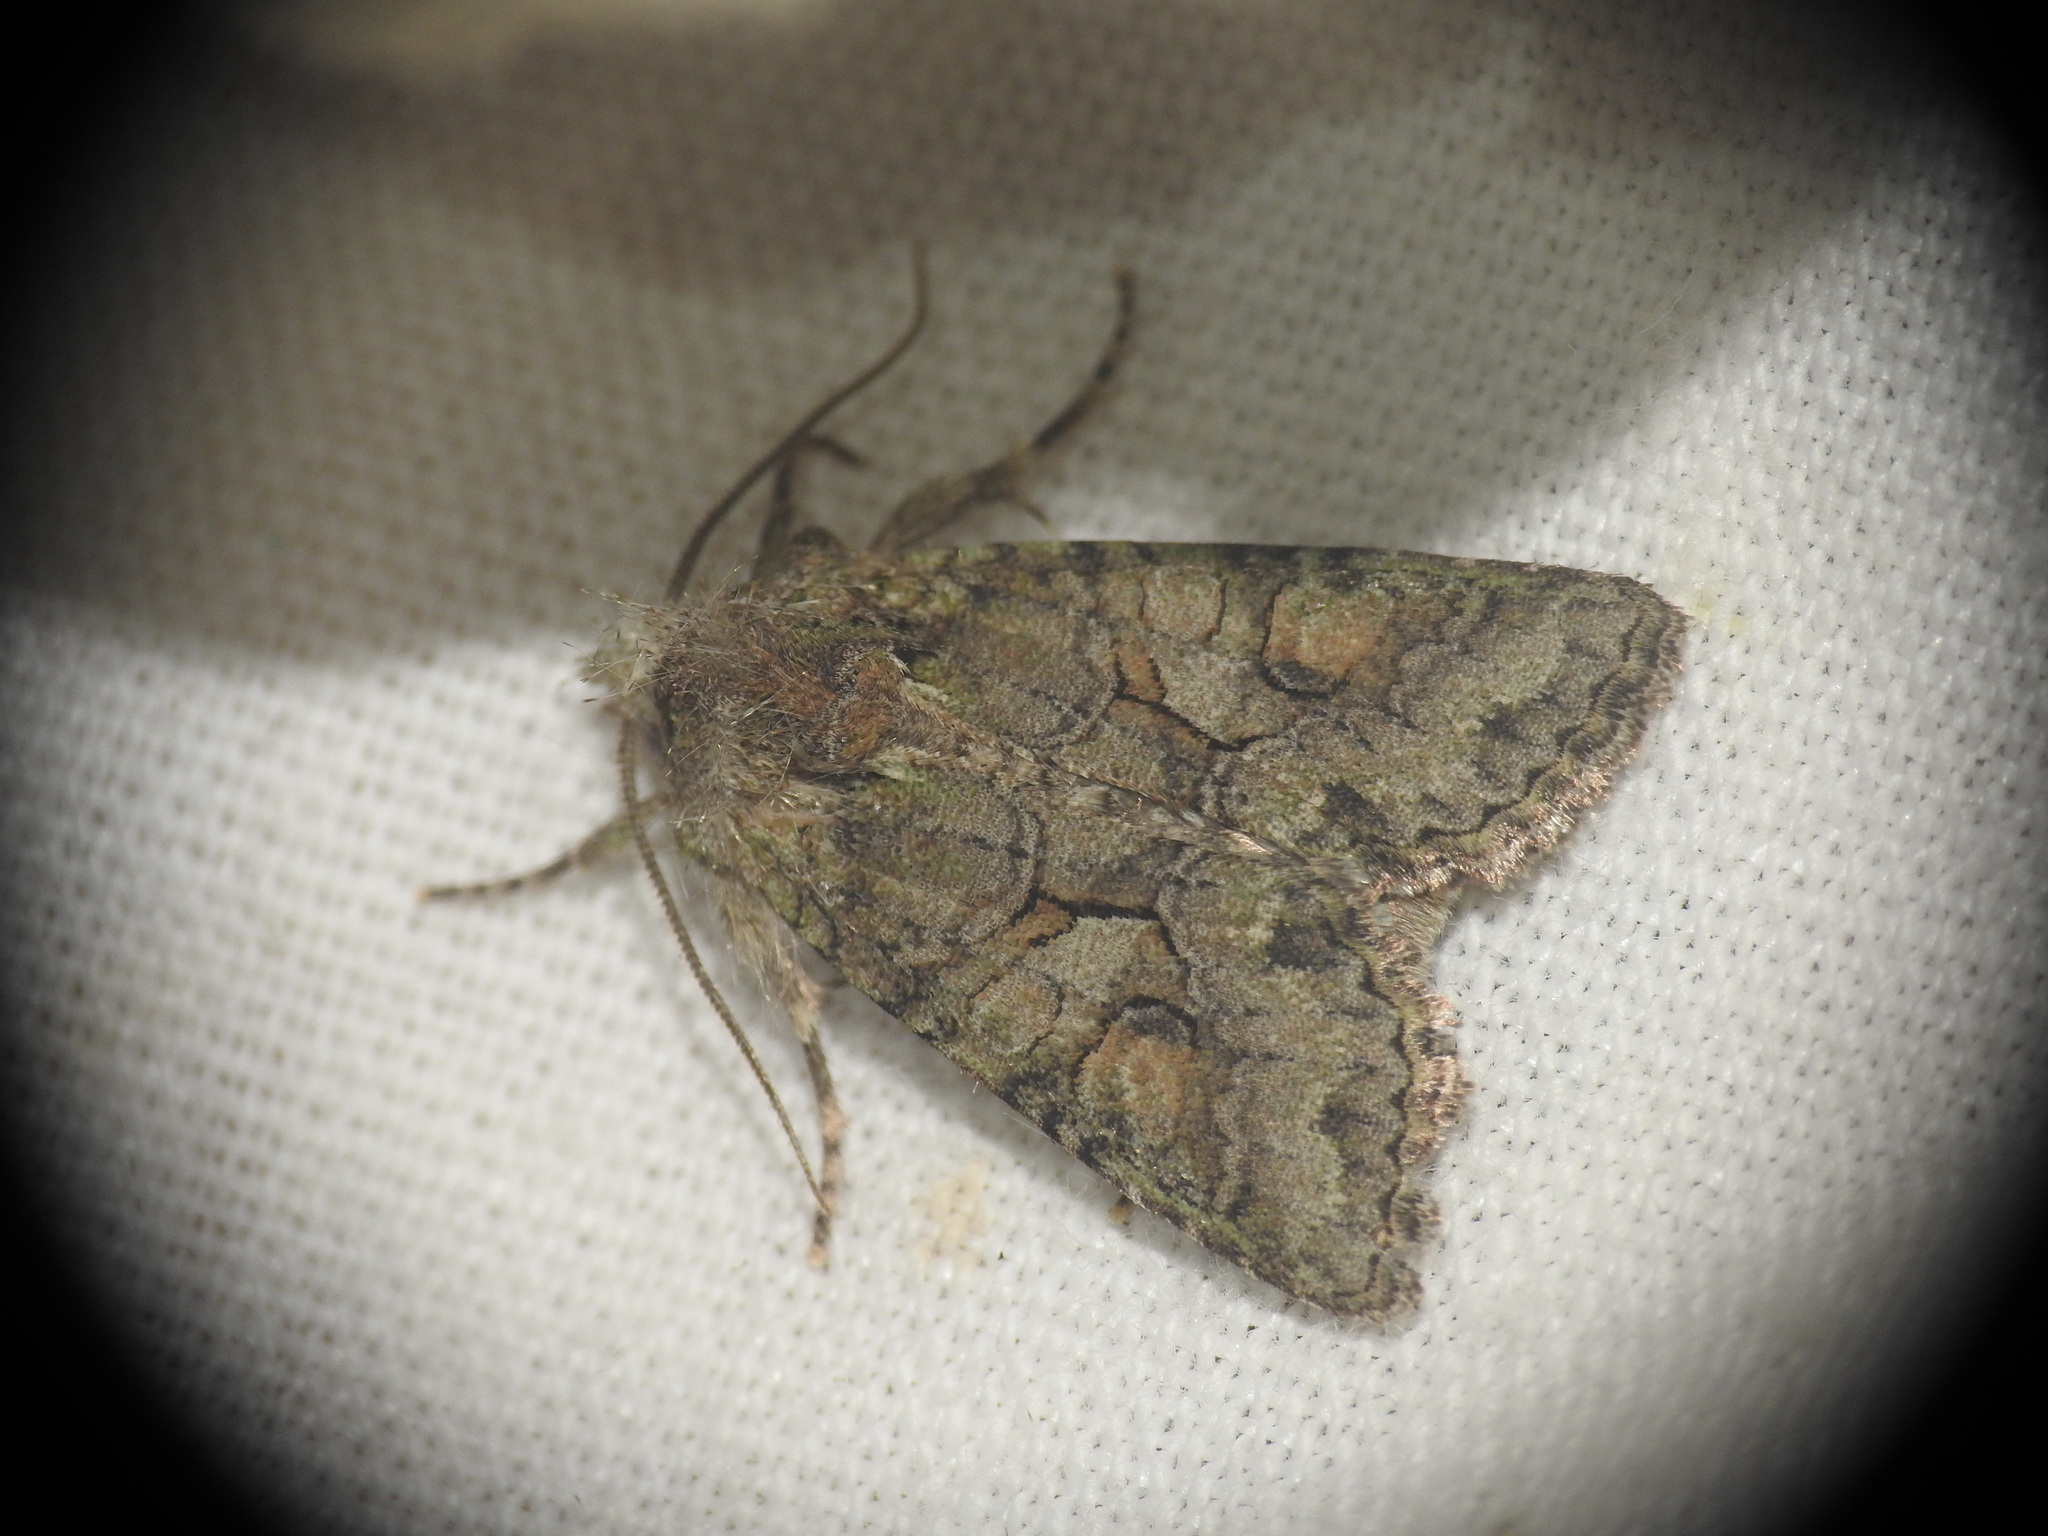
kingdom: Animalia
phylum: Arthropoda
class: Insecta
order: Lepidoptera
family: Noctuidae
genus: Dryobotodes
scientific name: Dryobotodes roboris
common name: Southern brindled green
